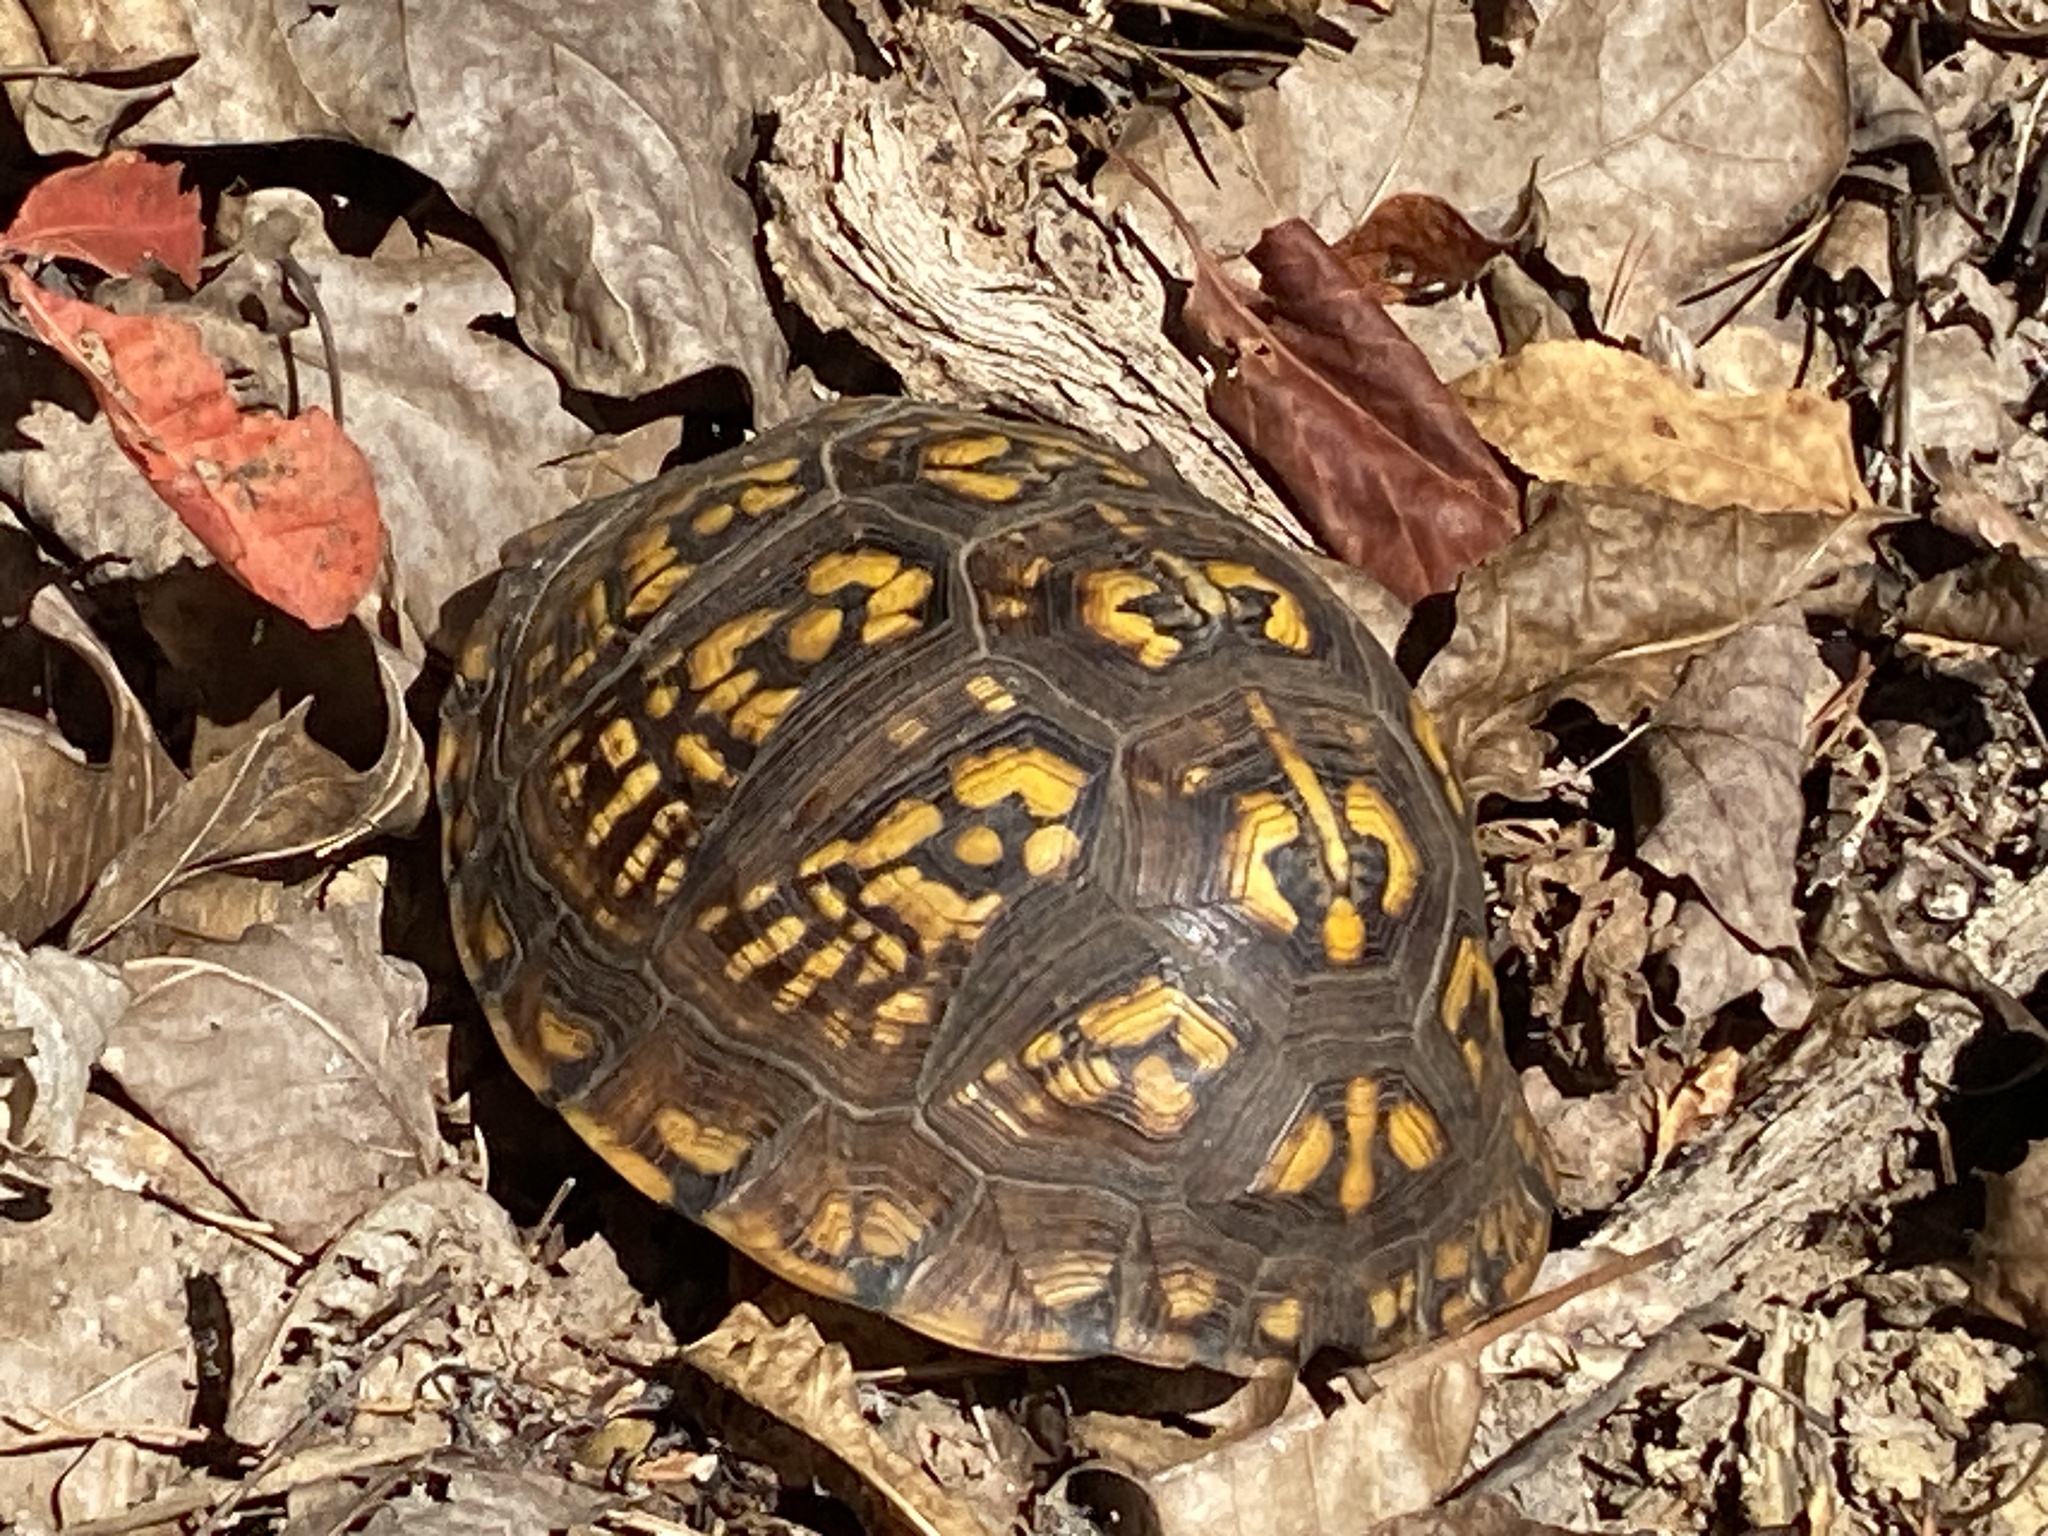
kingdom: Animalia
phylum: Chordata
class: Testudines
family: Emydidae
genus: Terrapene
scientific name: Terrapene carolina
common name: Common box turtle
